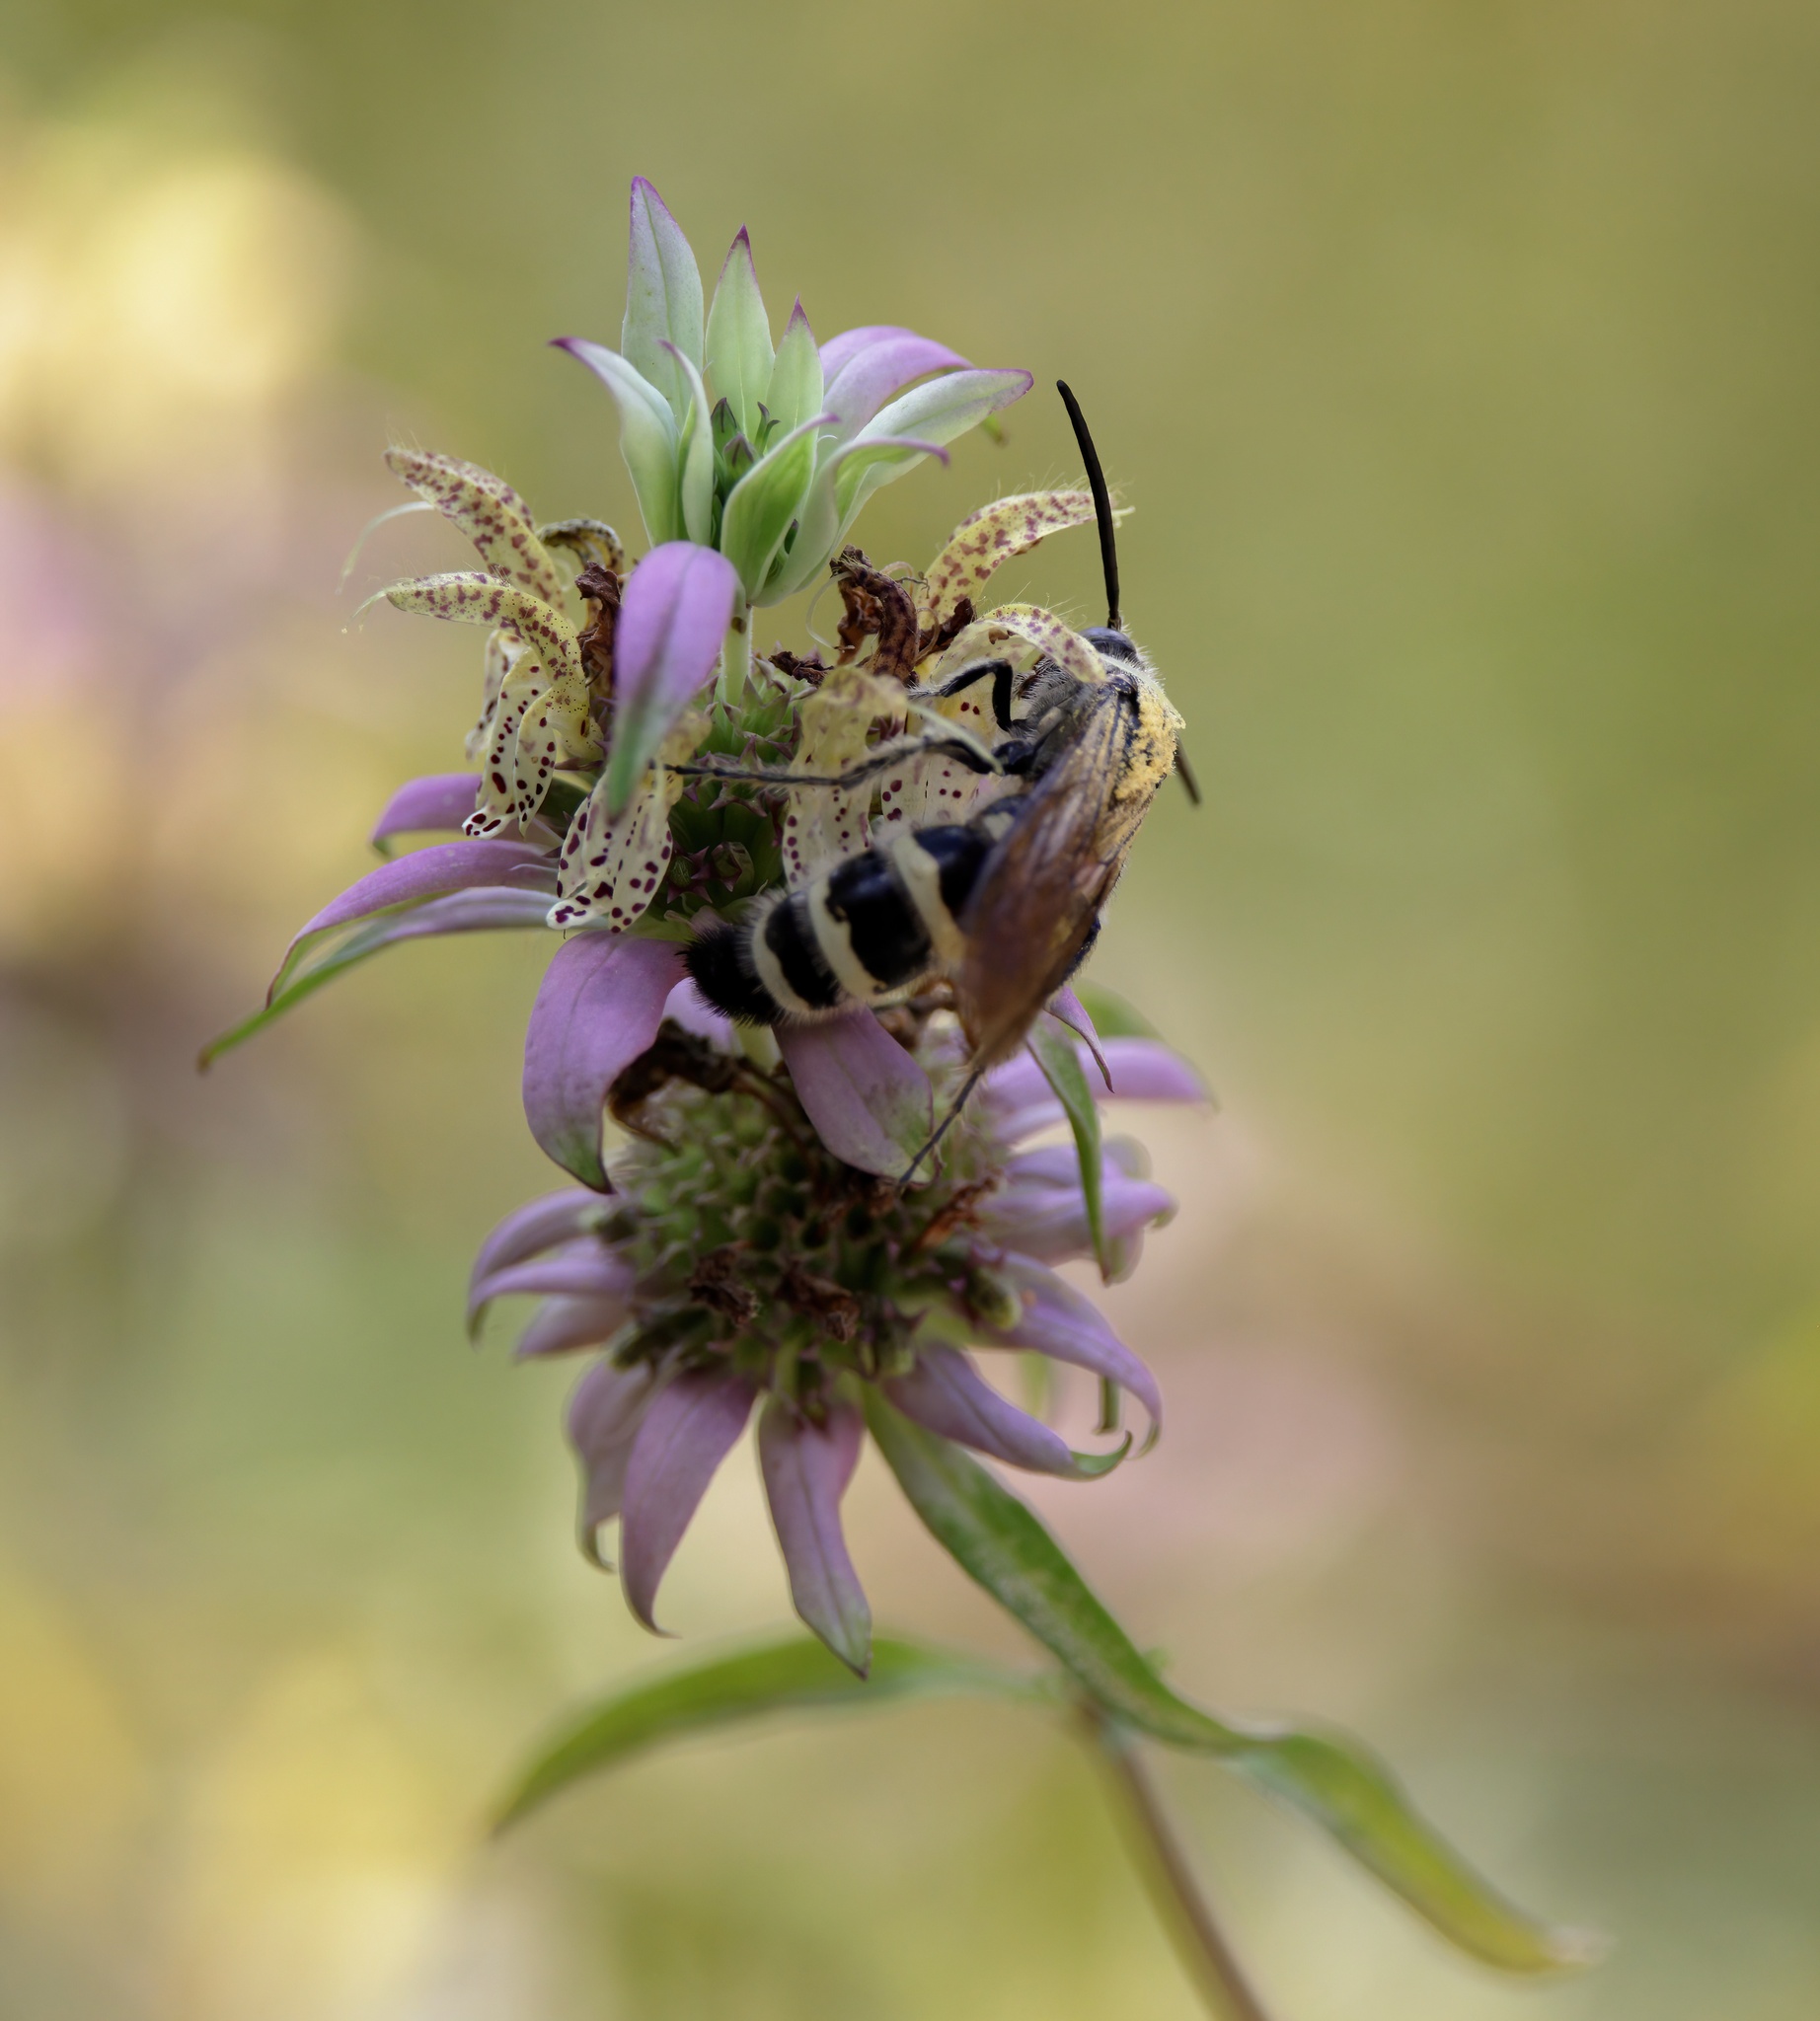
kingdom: Animalia
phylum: Arthropoda
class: Insecta
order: Hymenoptera
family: Scoliidae
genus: Dielis
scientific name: Dielis
